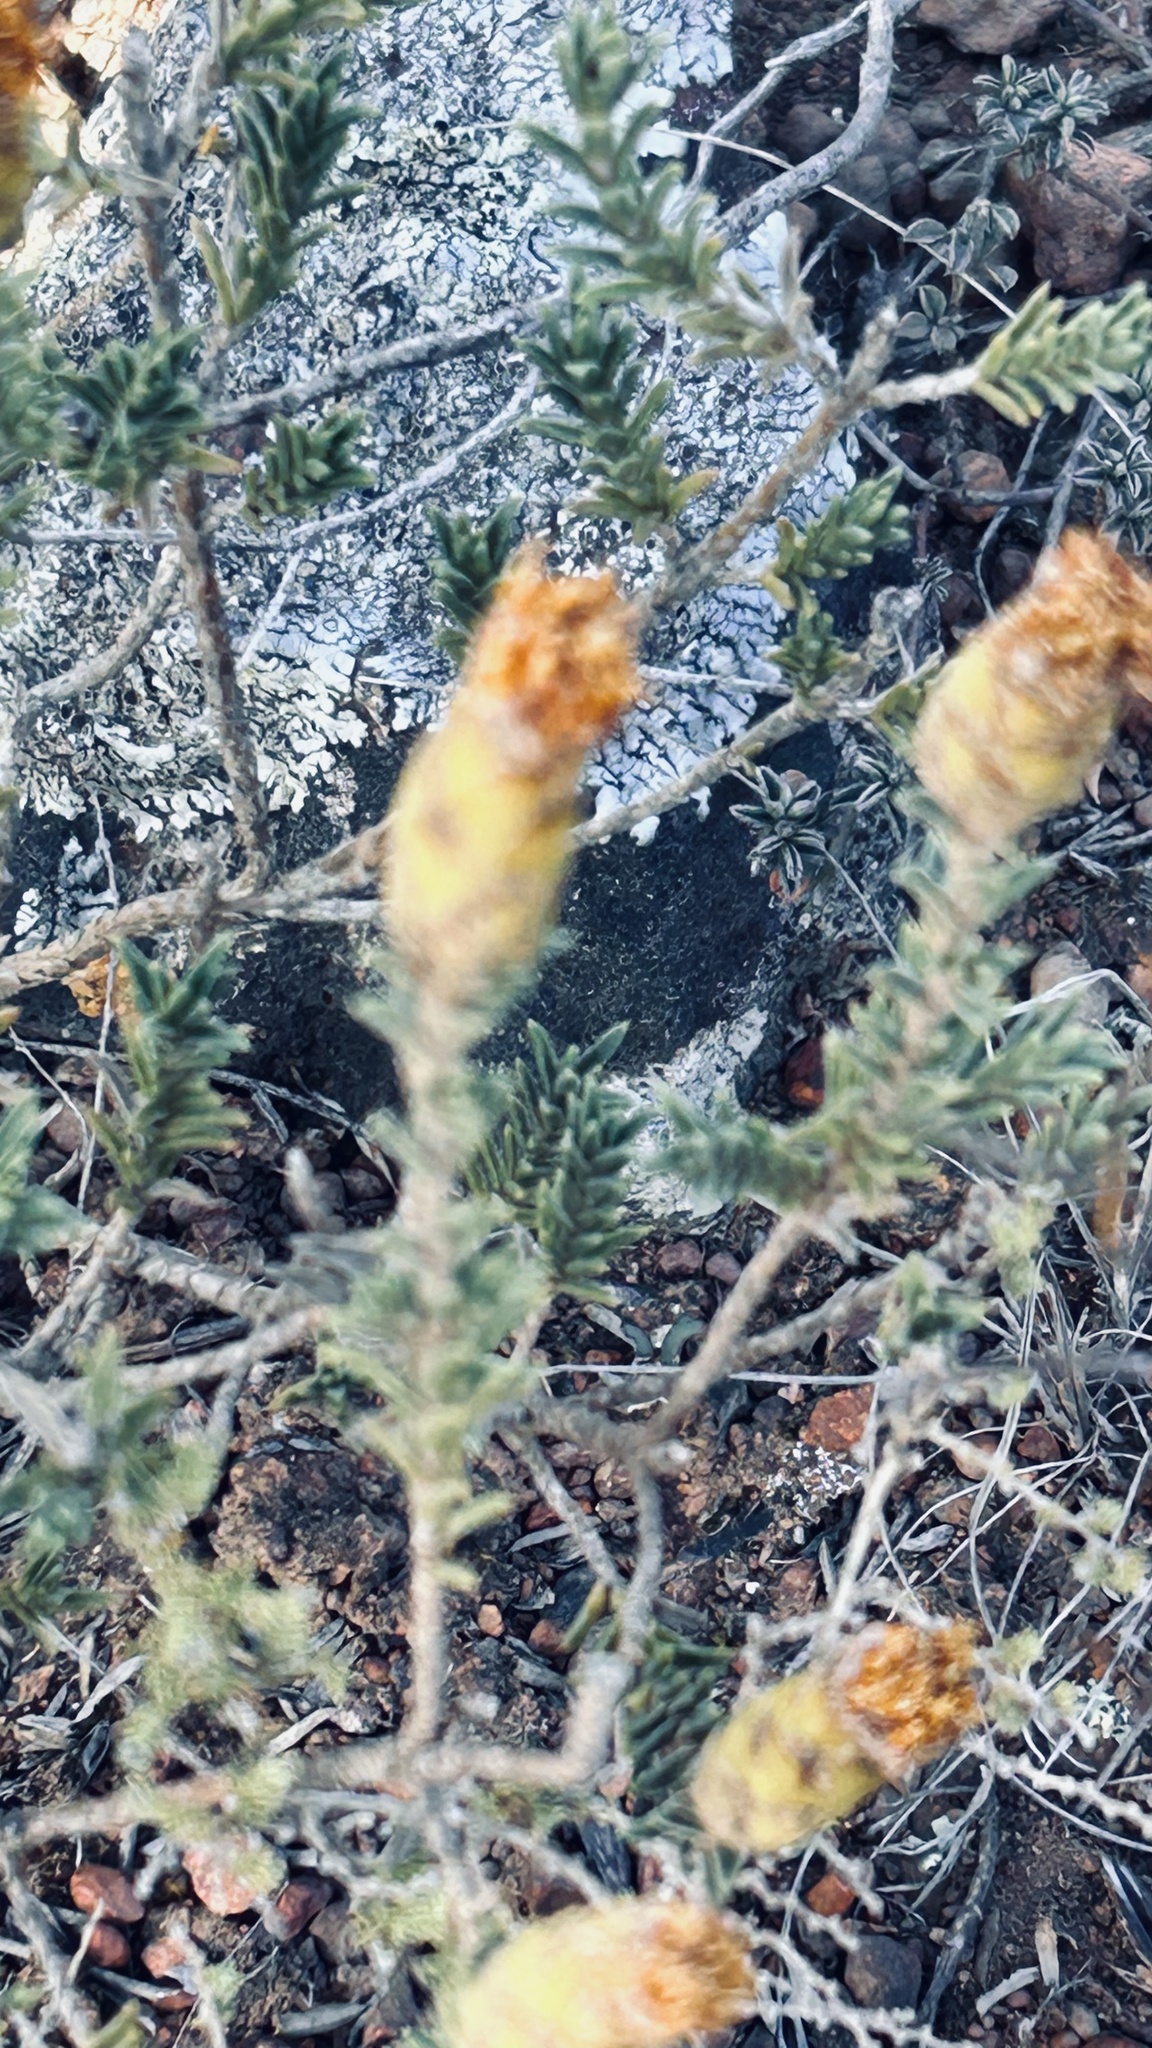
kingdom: Plantae
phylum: Tracheophyta
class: Magnoliopsida
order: Asterales
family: Asteraceae
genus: Pteronia
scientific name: Pteronia elongata
